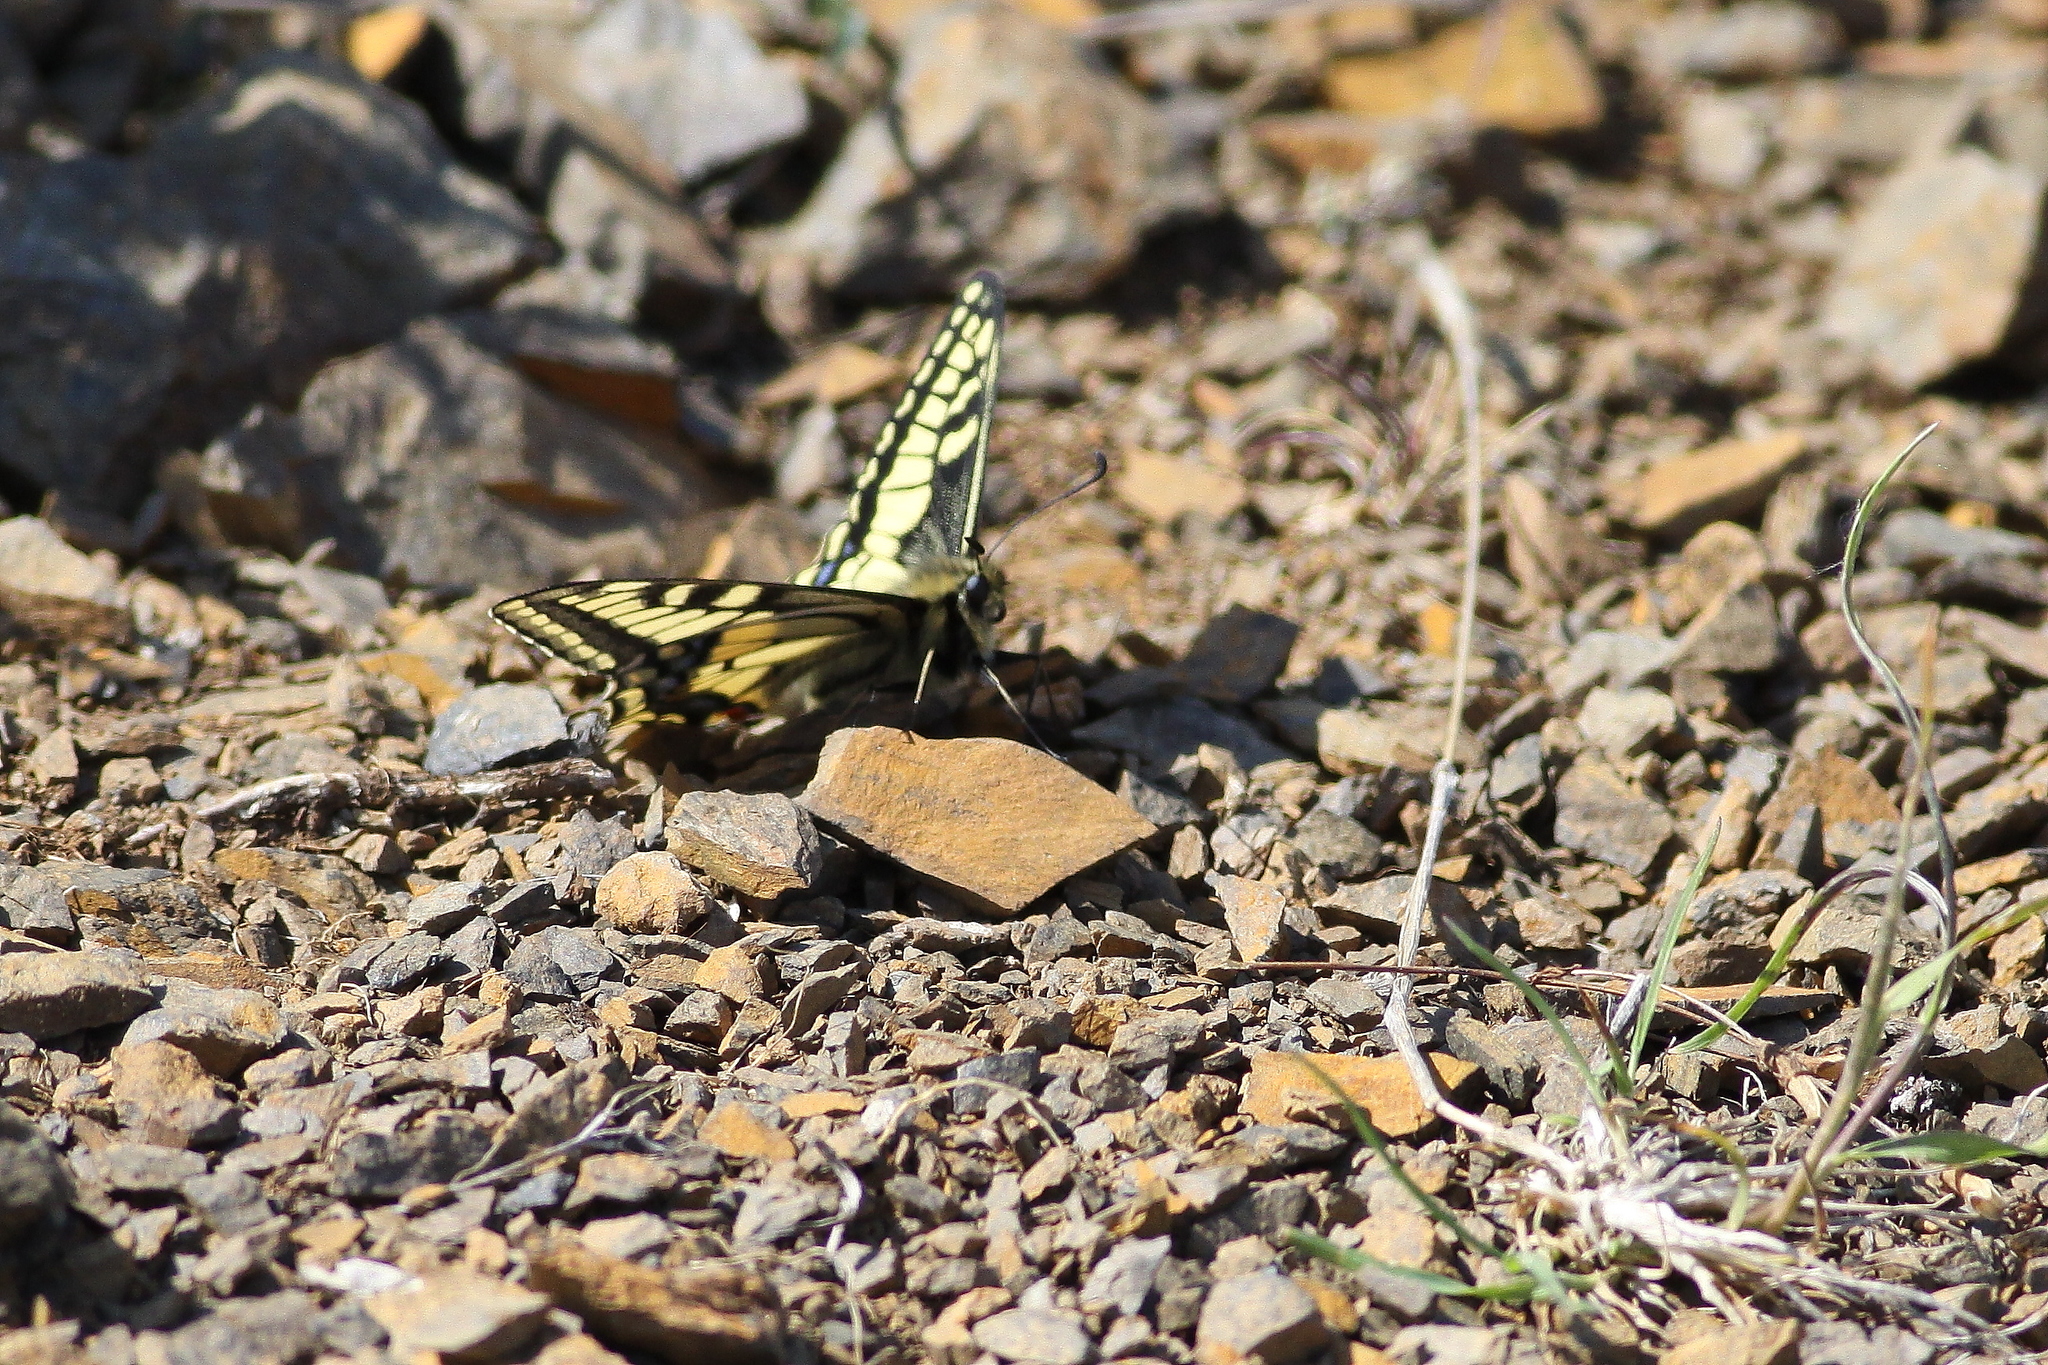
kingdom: Animalia
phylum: Arthropoda
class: Insecta
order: Lepidoptera
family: Papilionidae
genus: Papilio
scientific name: Papilio machaon
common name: Swallowtail
